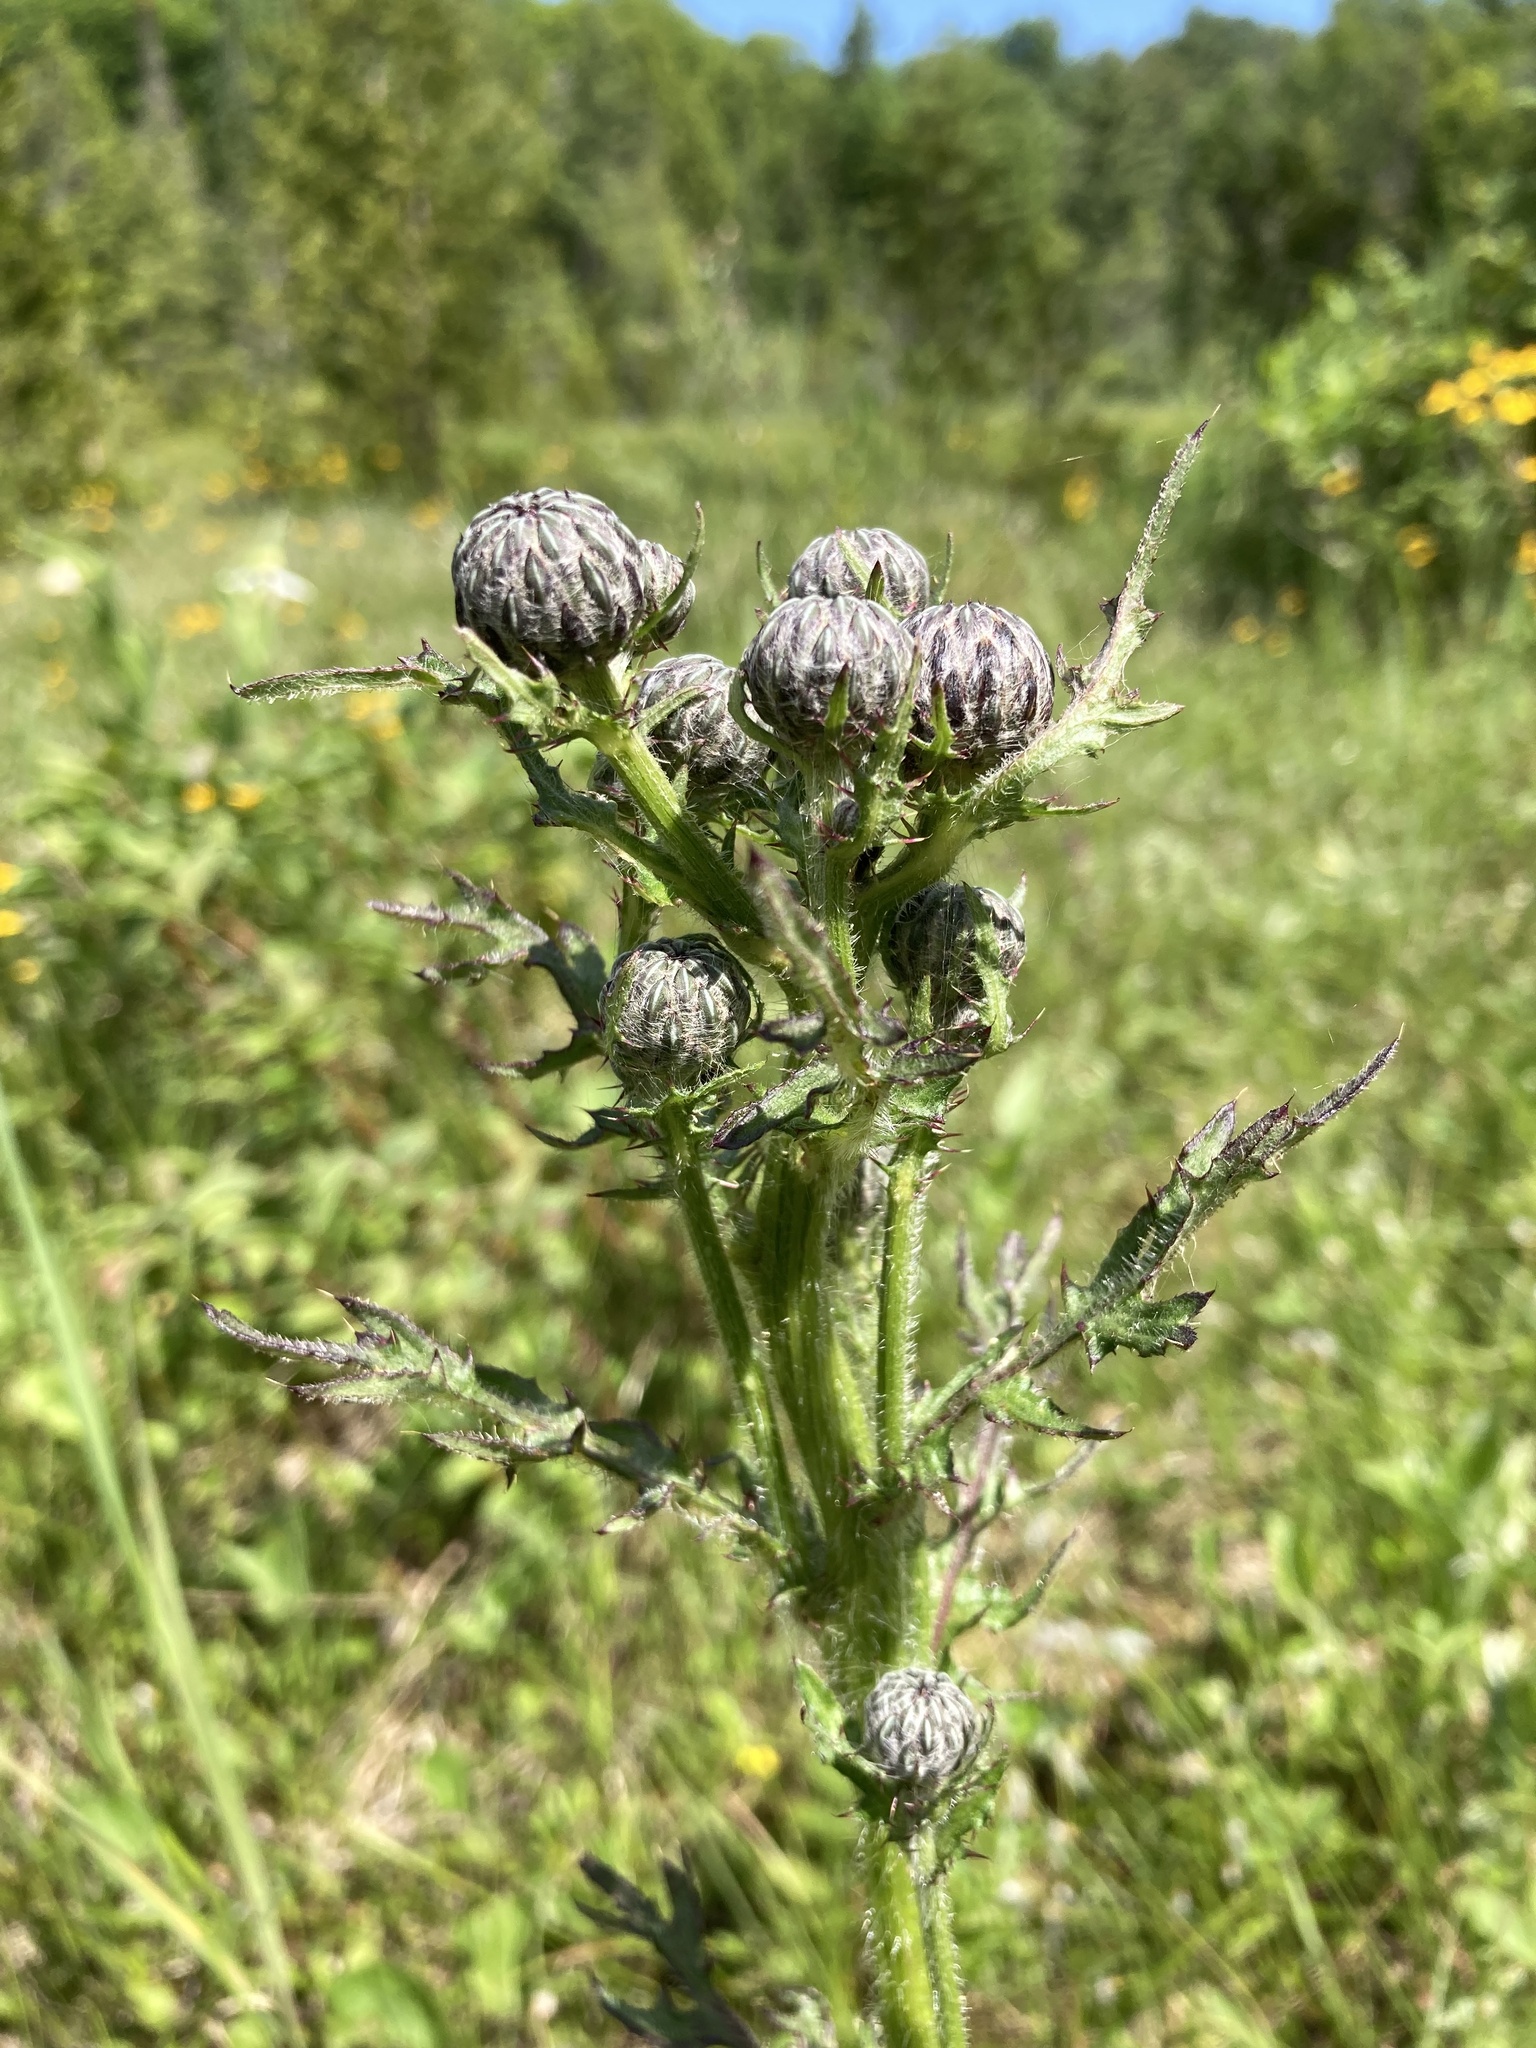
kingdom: Plantae
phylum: Tracheophyta
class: Magnoliopsida
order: Asterales
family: Asteraceae
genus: Cirsium
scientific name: Cirsium muticum
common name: Dunce-nettle
